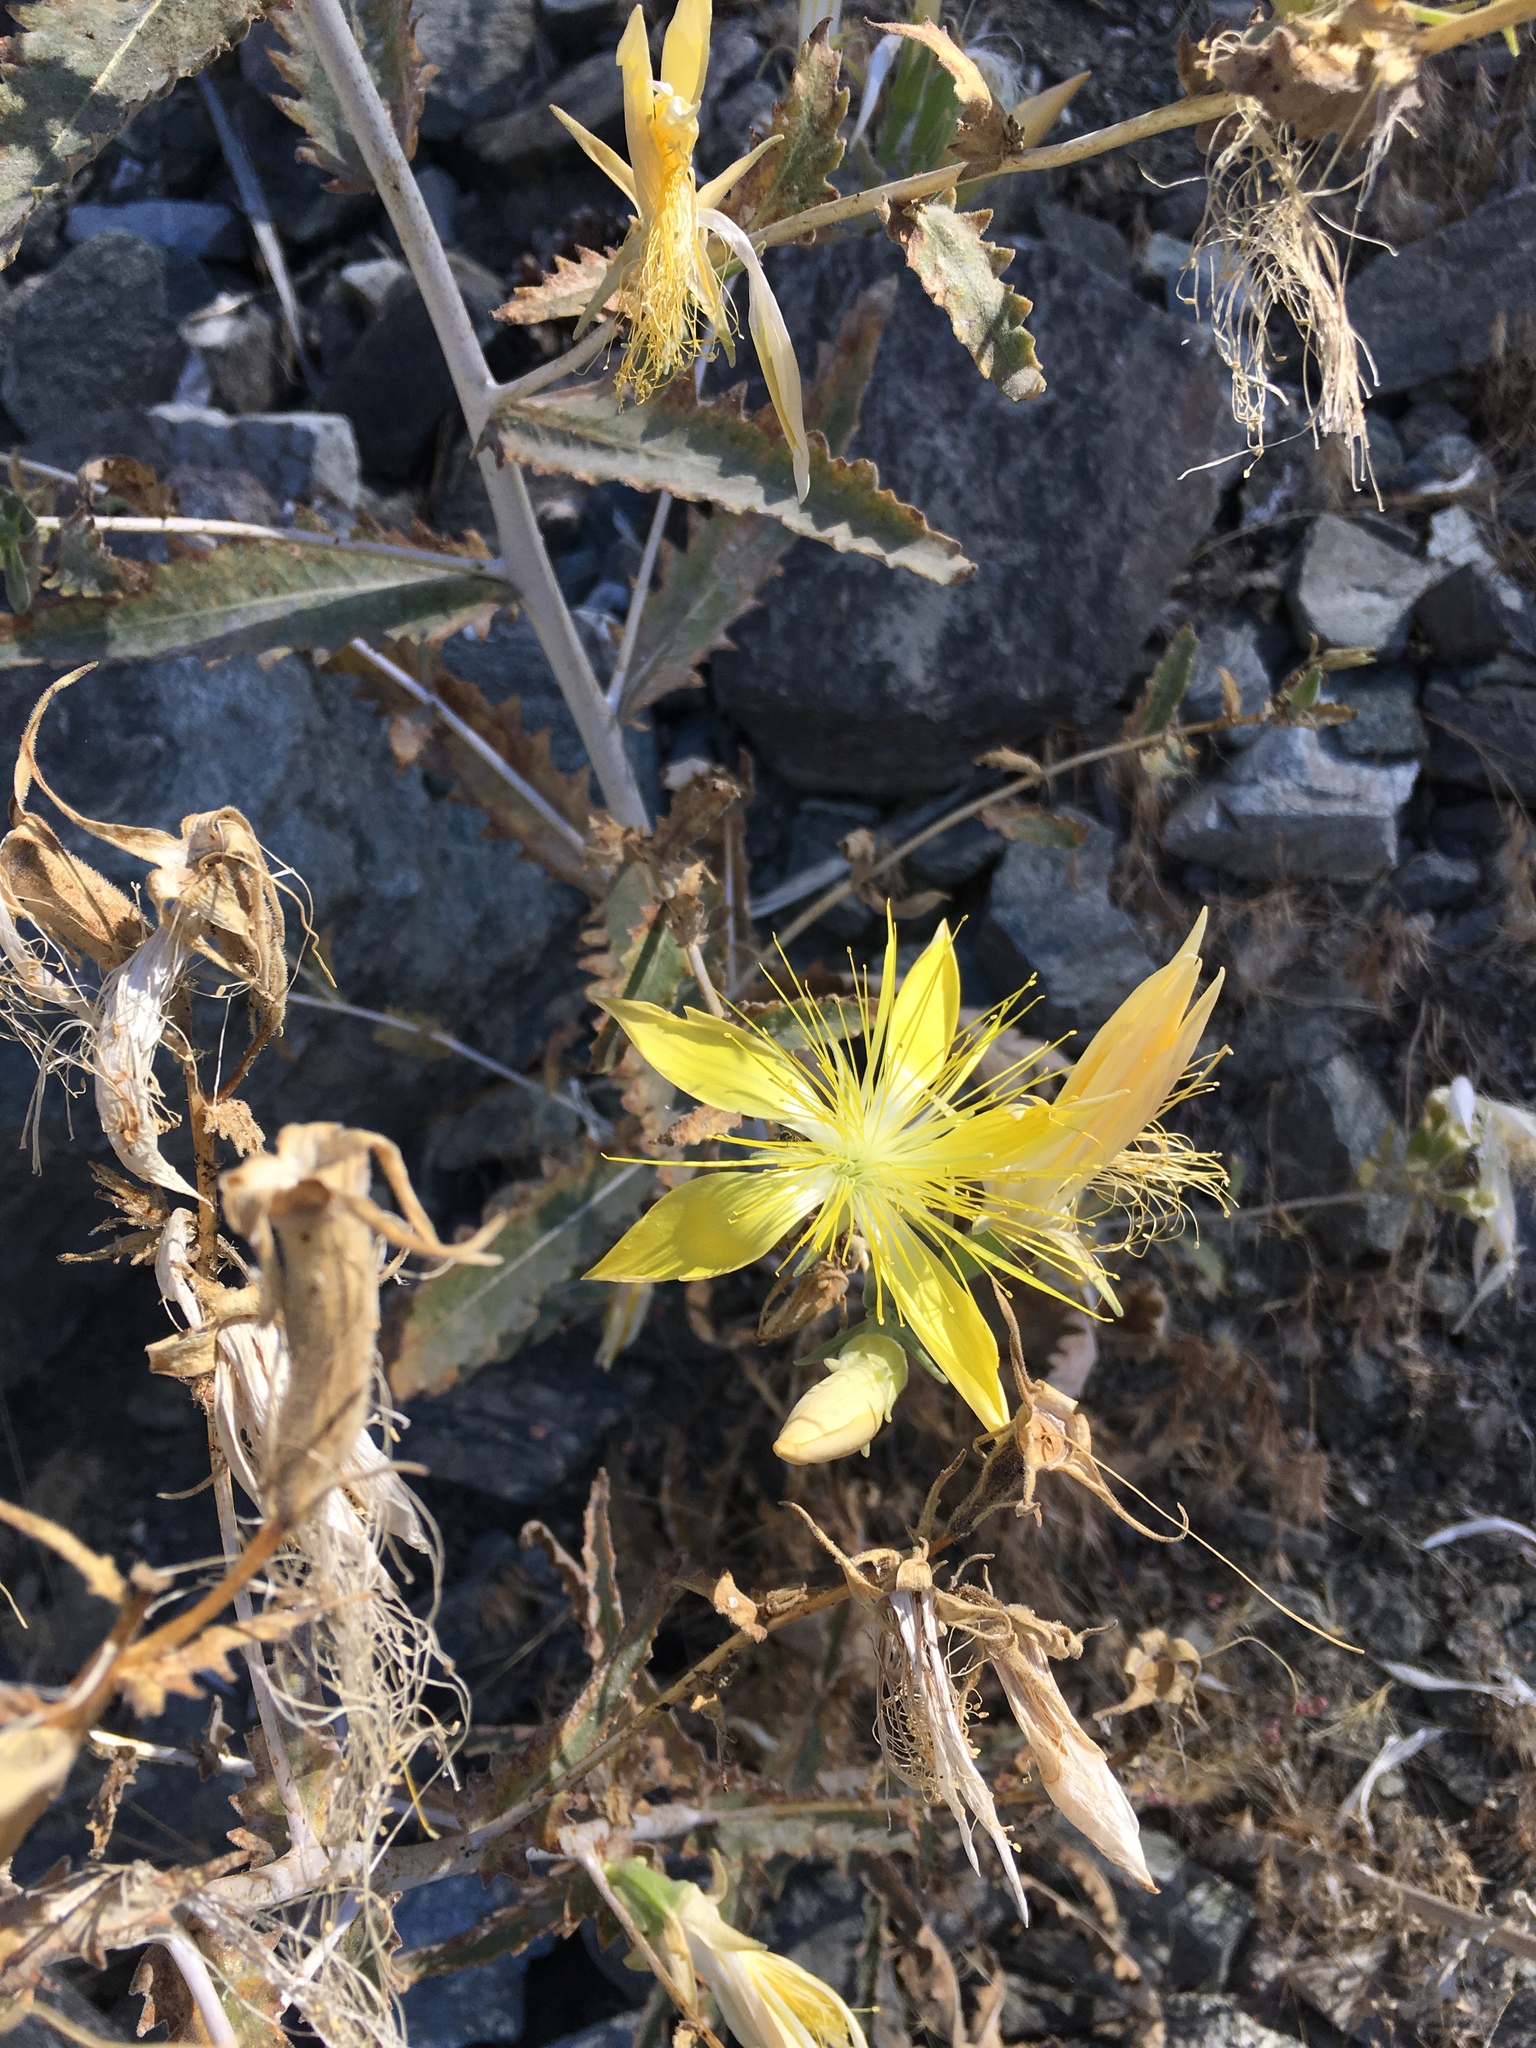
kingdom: Plantae
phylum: Tracheophyta
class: Magnoliopsida
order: Cornales
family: Loasaceae
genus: Mentzelia
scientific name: Mentzelia laevicaulis
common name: Smooth-stem blazingstar
